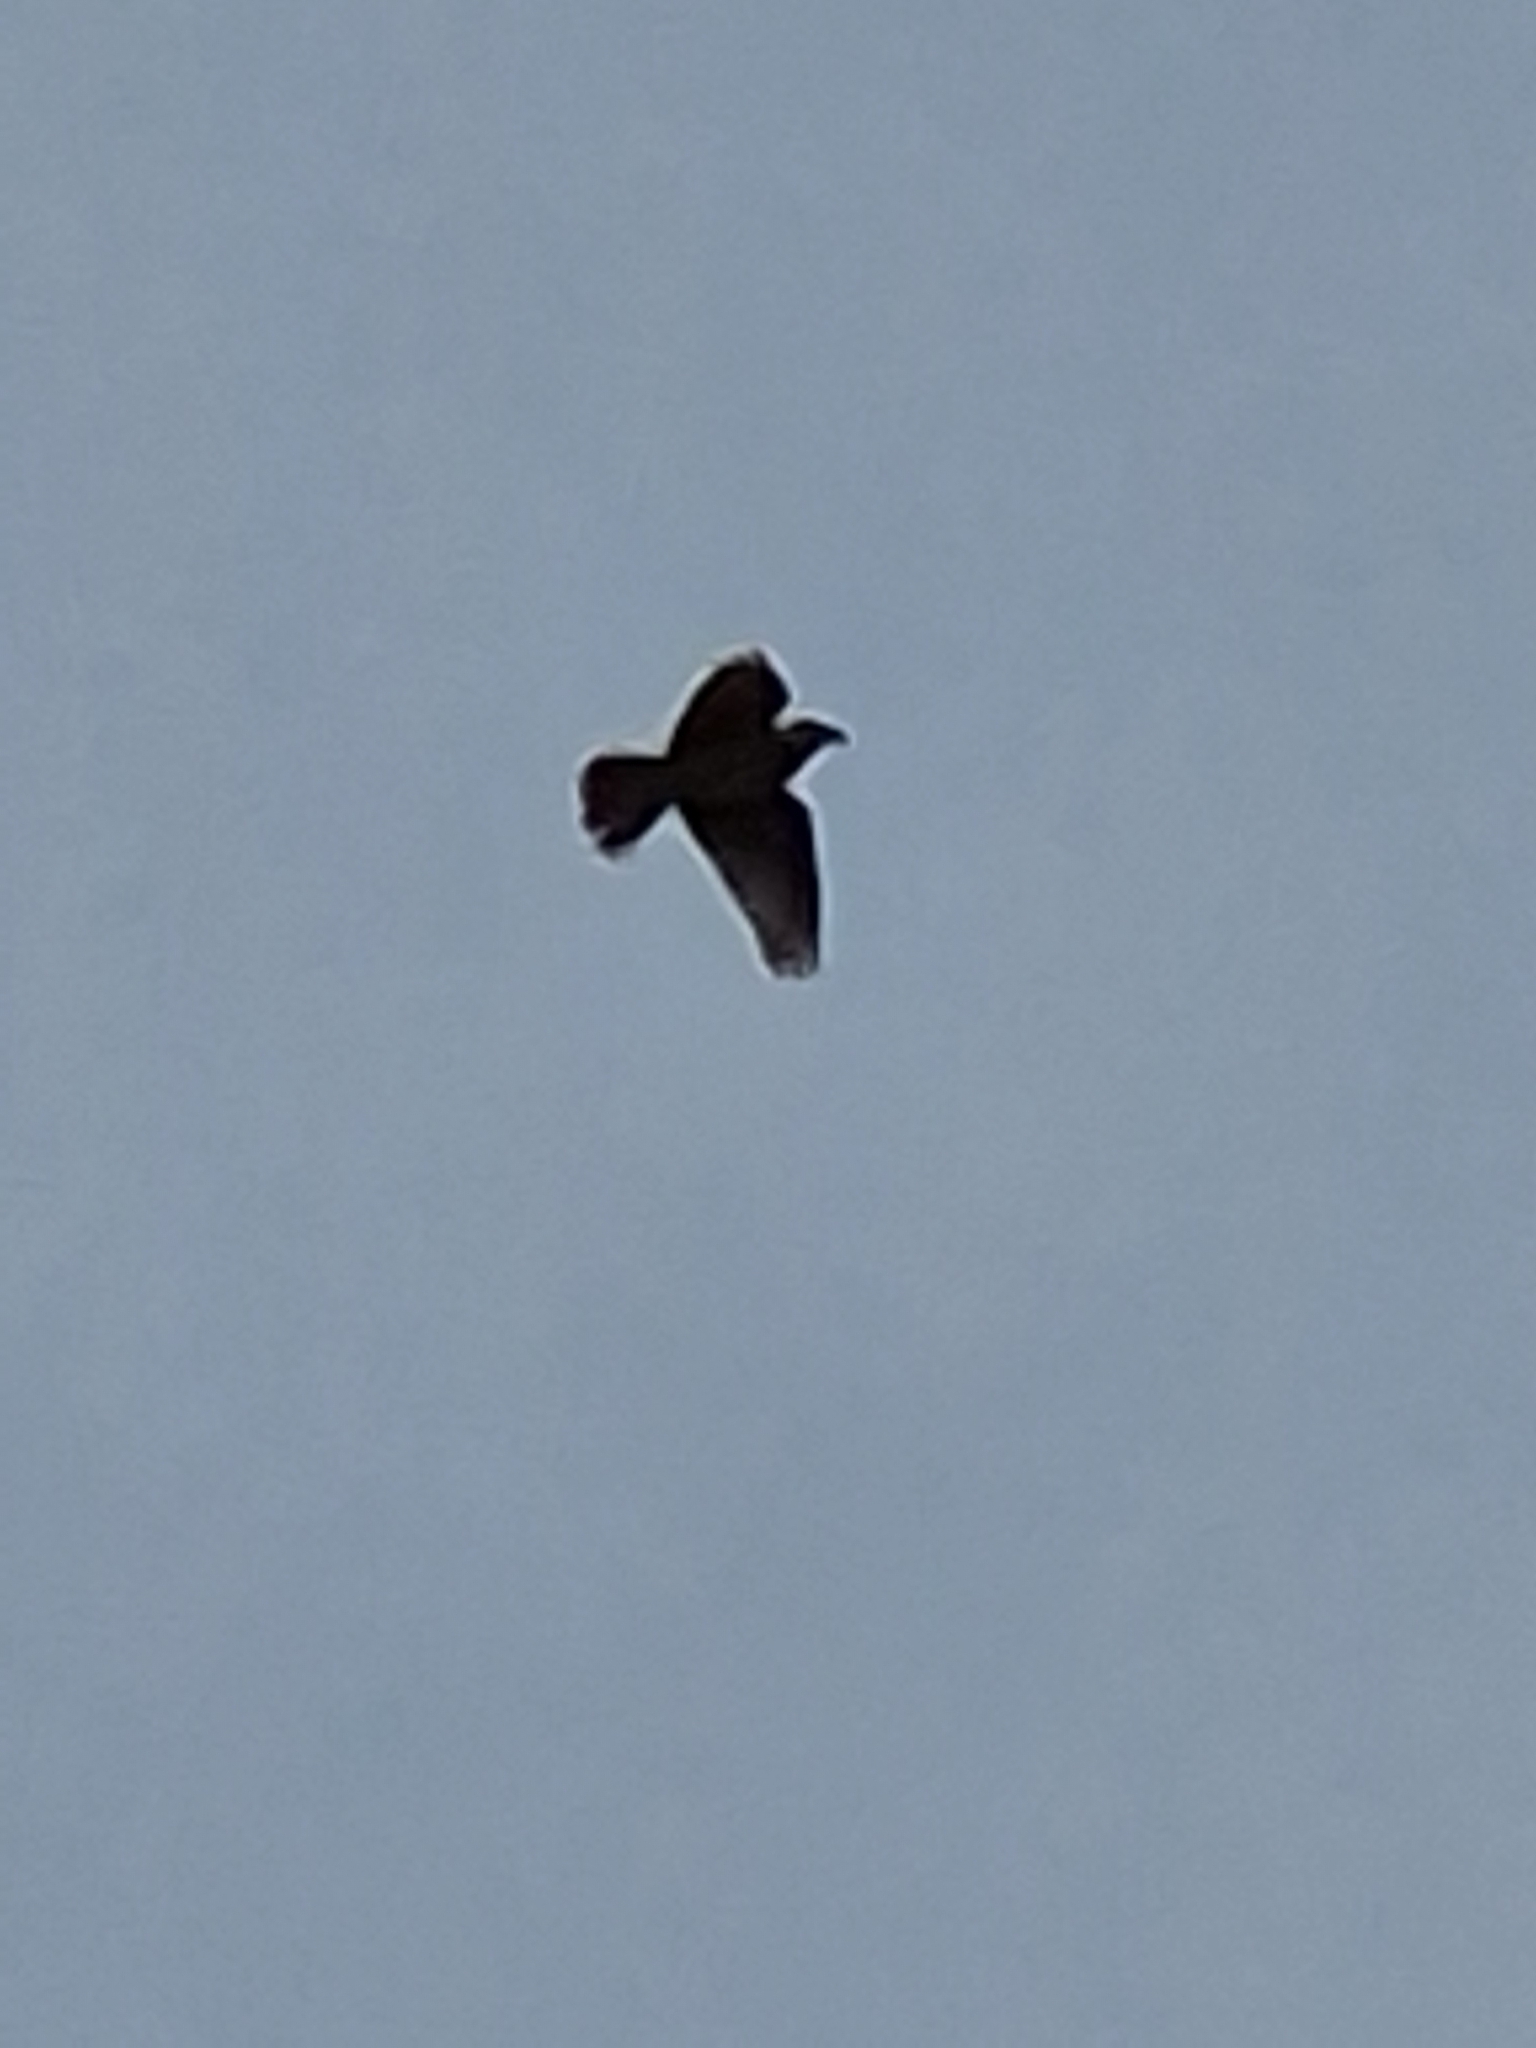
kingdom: Animalia
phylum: Chordata
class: Aves
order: Passeriformes
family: Alaudidae
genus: Alauda
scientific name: Alauda arvensis
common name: Eurasian skylark
